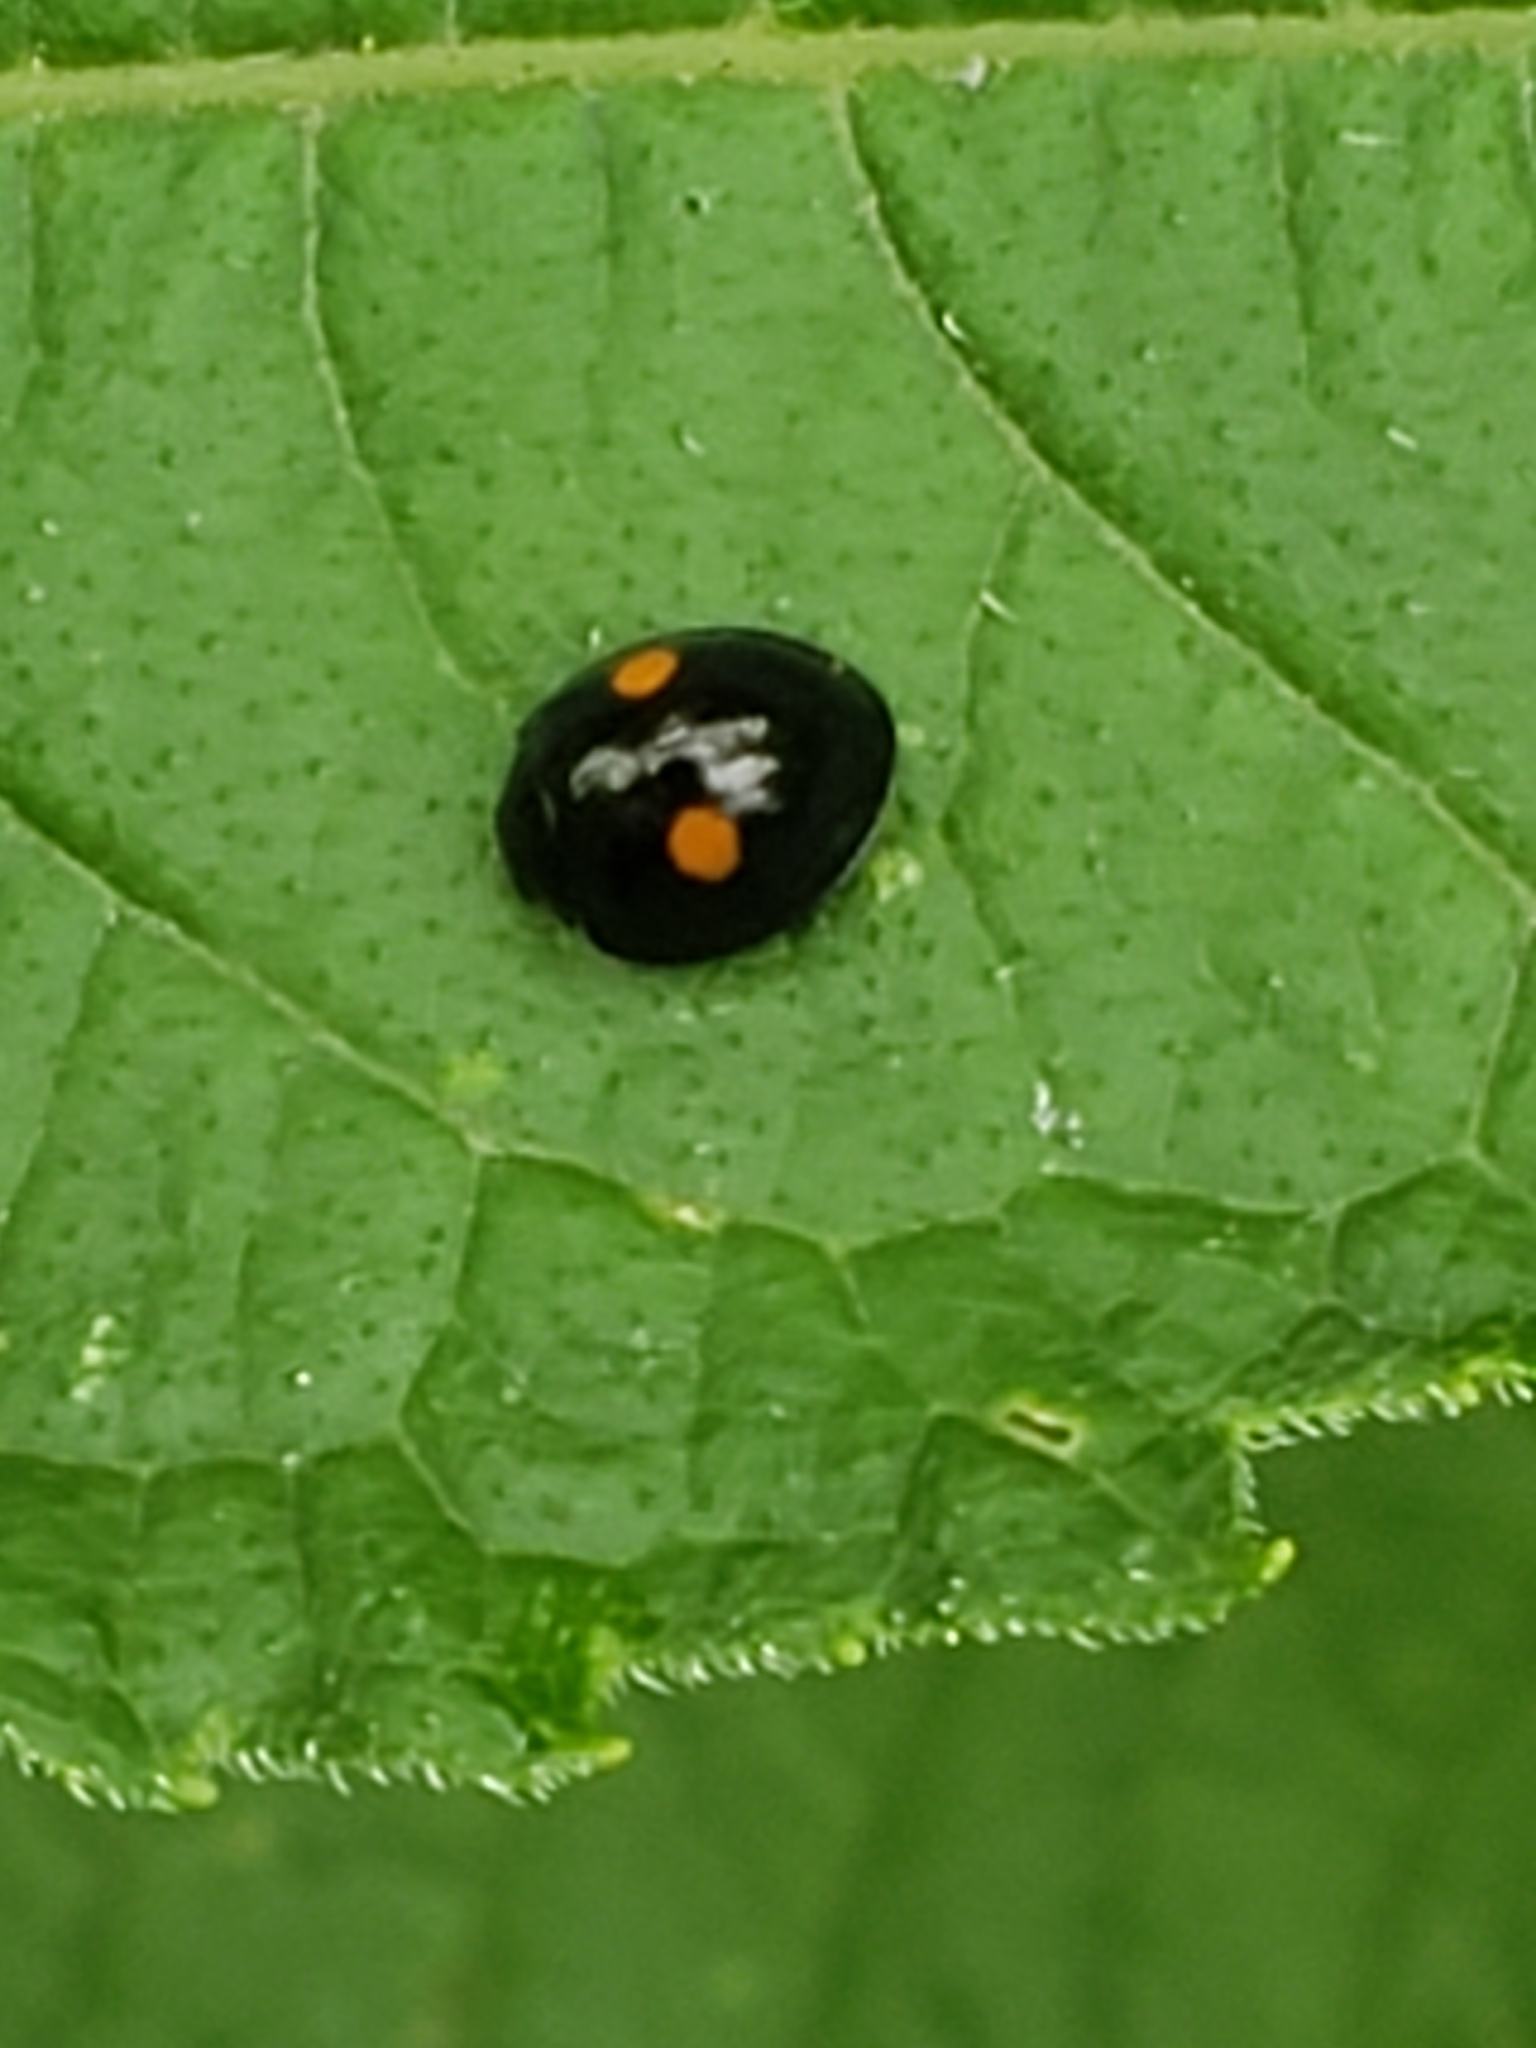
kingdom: Animalia
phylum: Arthropoda
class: Insecta
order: Coleoptera
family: Coccinellidae
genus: Chilocorus
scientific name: Chilocorus stigma
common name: Twicestabbed lady beetle
